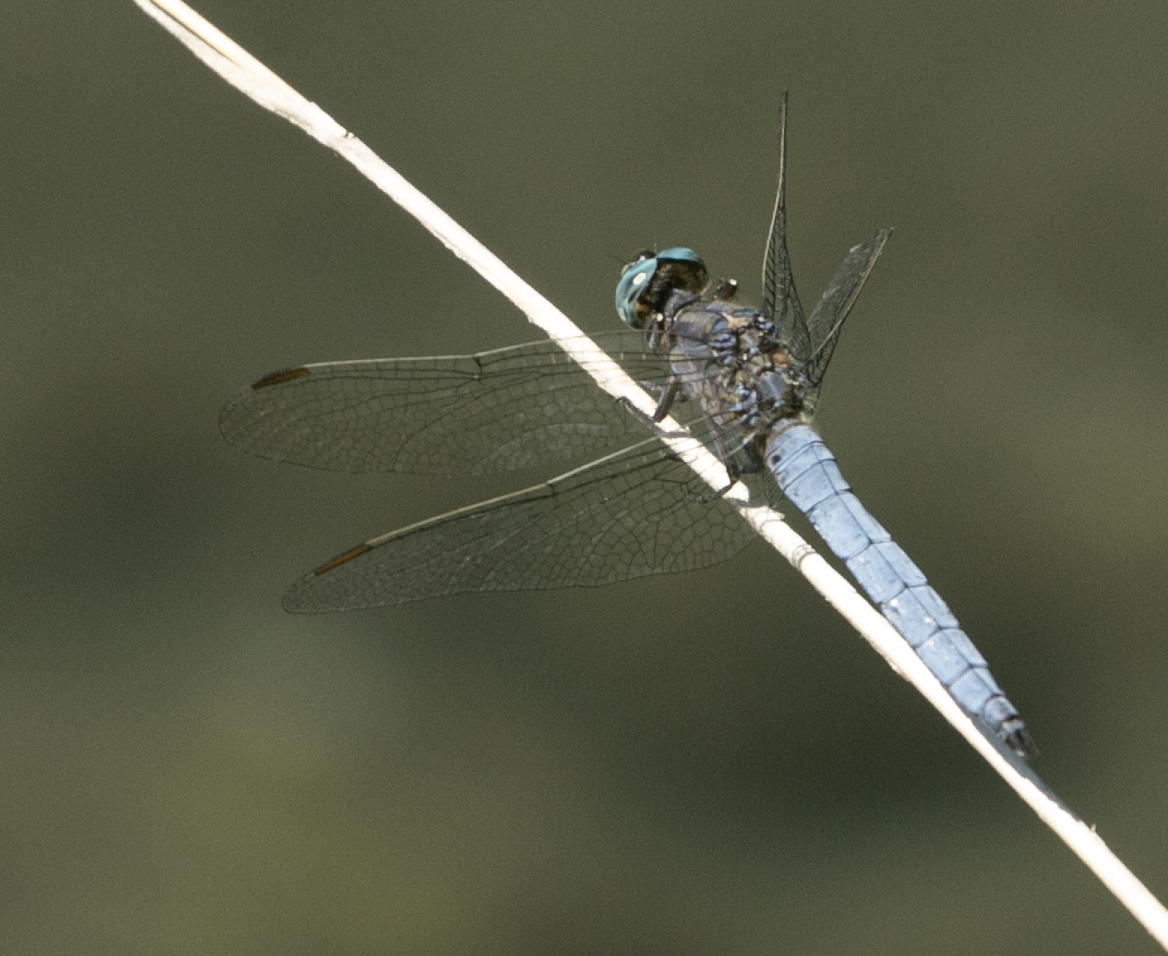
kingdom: Animalia
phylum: Arthropoda
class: Insecta
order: Odonata
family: Libellulidae
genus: Orthetrum
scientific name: Orthetrum coerulescens
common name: Keeled skimmer
